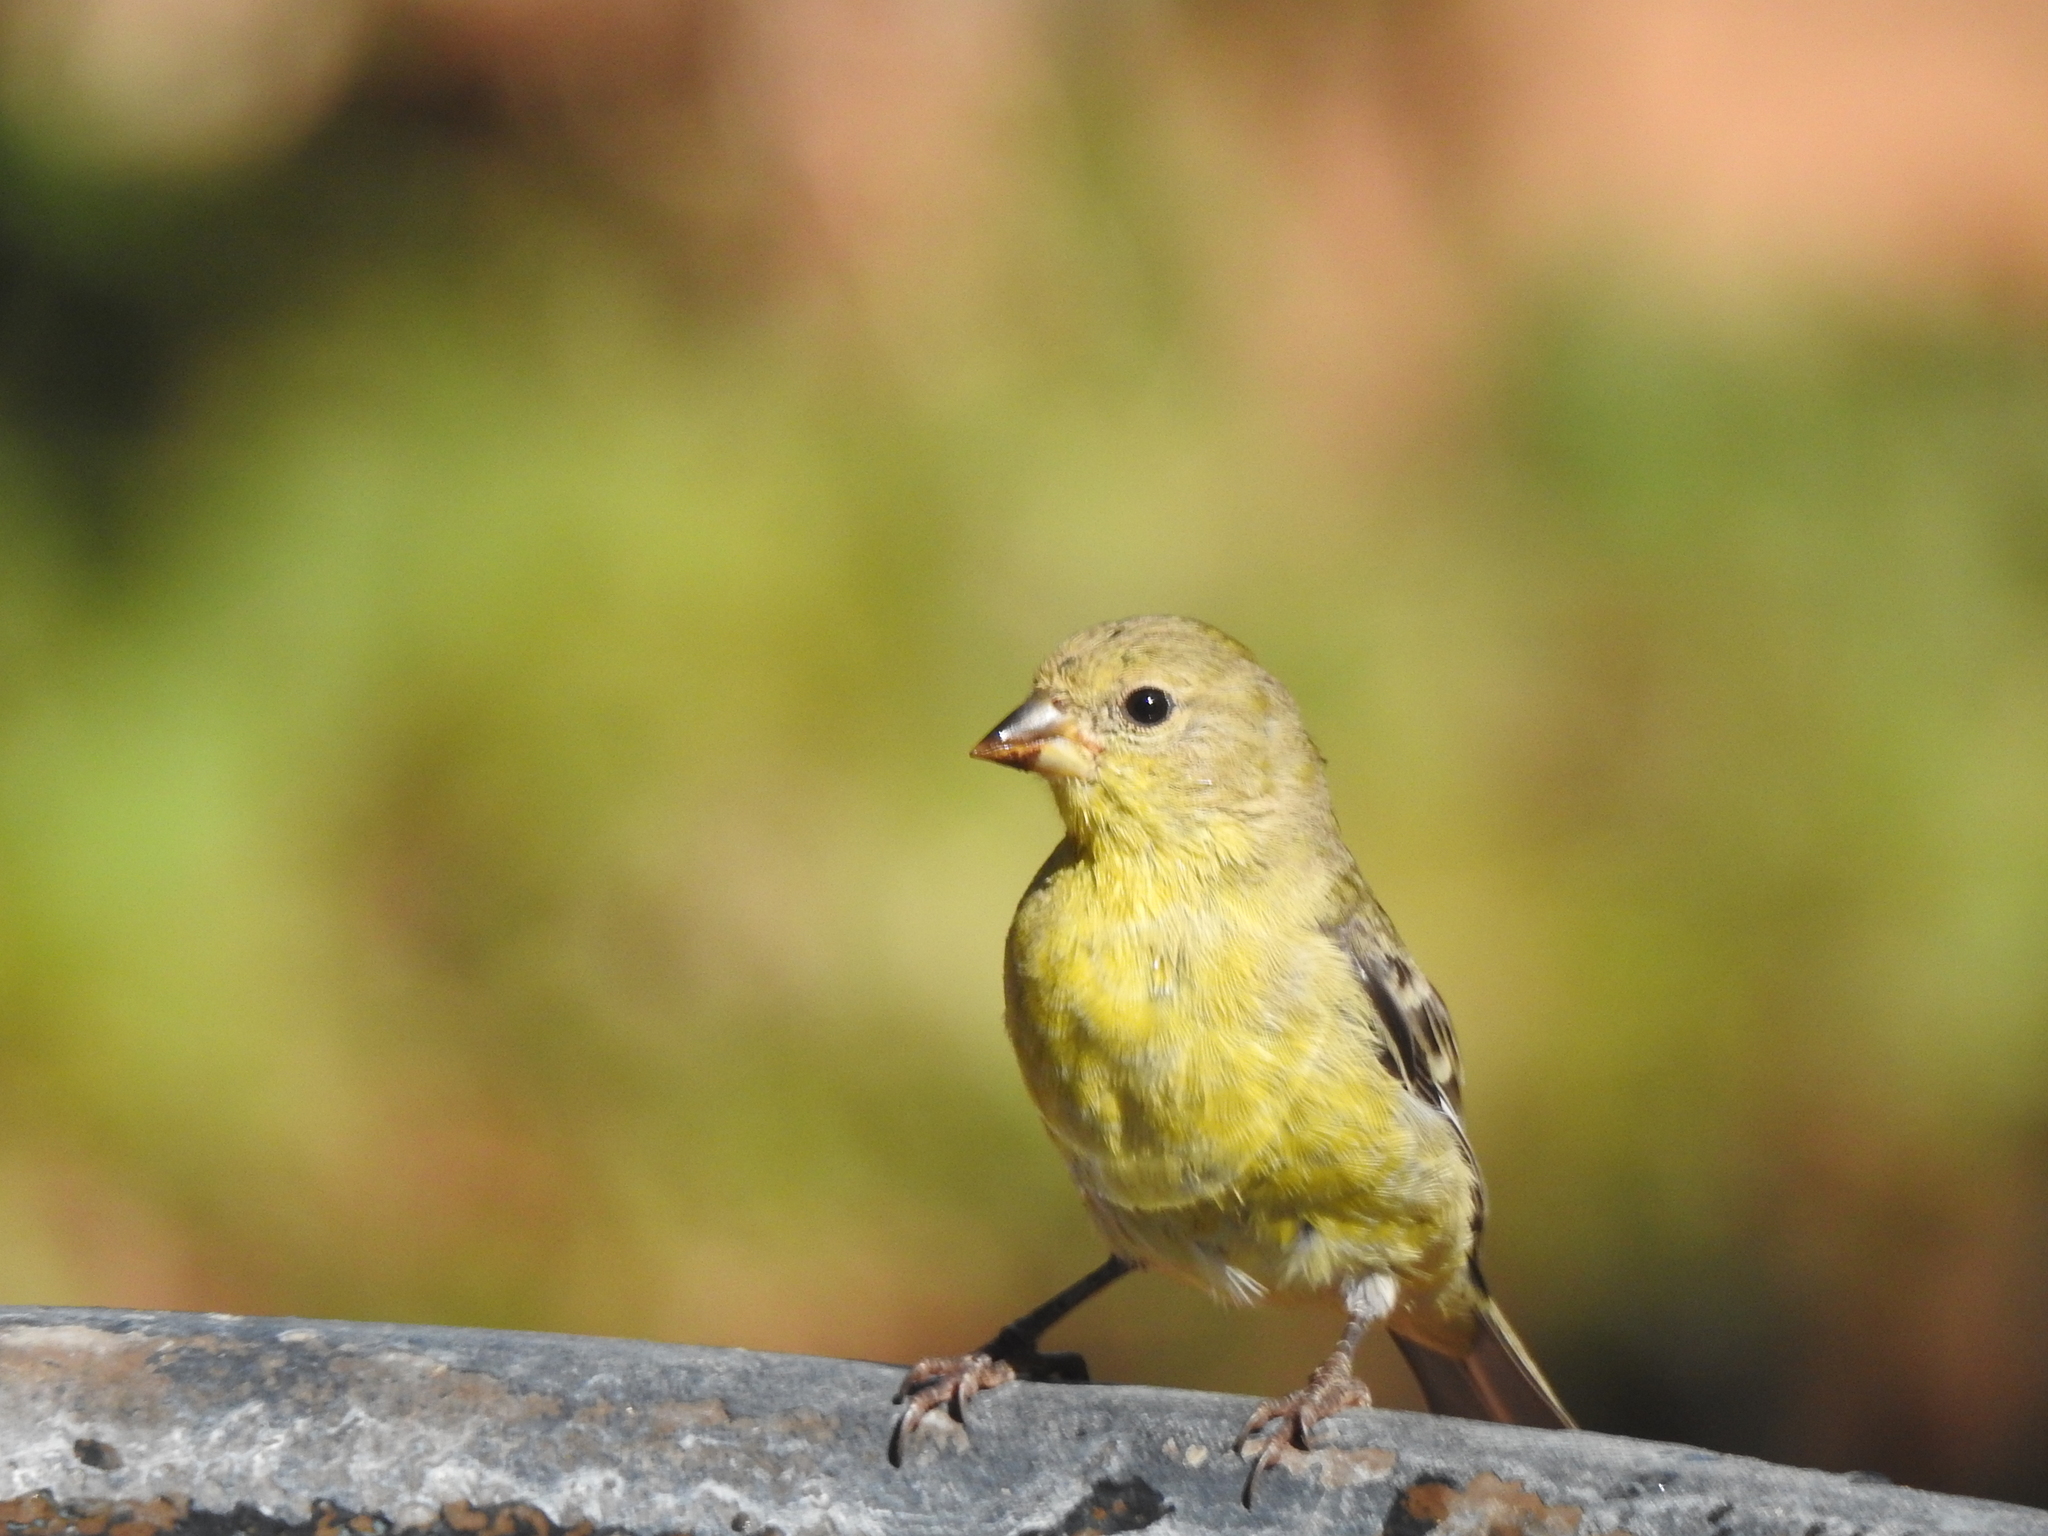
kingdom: Animalia
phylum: Chordata
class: Aves
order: Passeriformes
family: Fringillidae
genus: Spinus
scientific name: Spinus psaltria
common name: Lesser goldfinch
